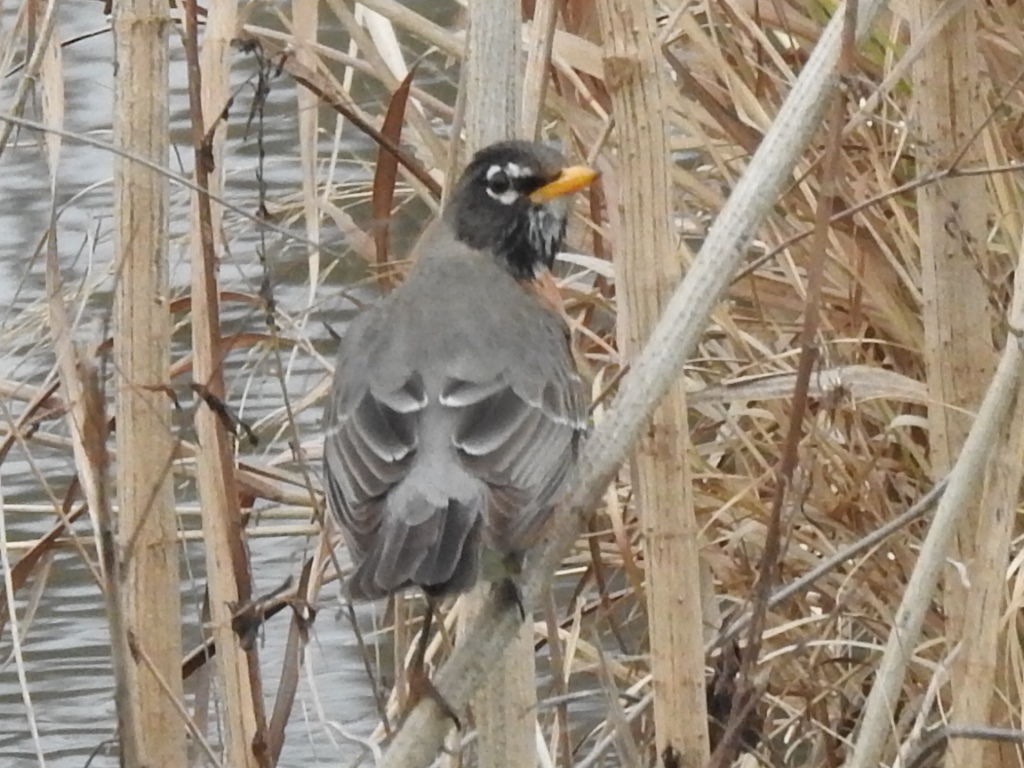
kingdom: Animalia
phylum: Chordata
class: Aves
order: Passeriformes
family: Turdidae
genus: Turdus
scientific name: Turdus migratorius
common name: American robin
